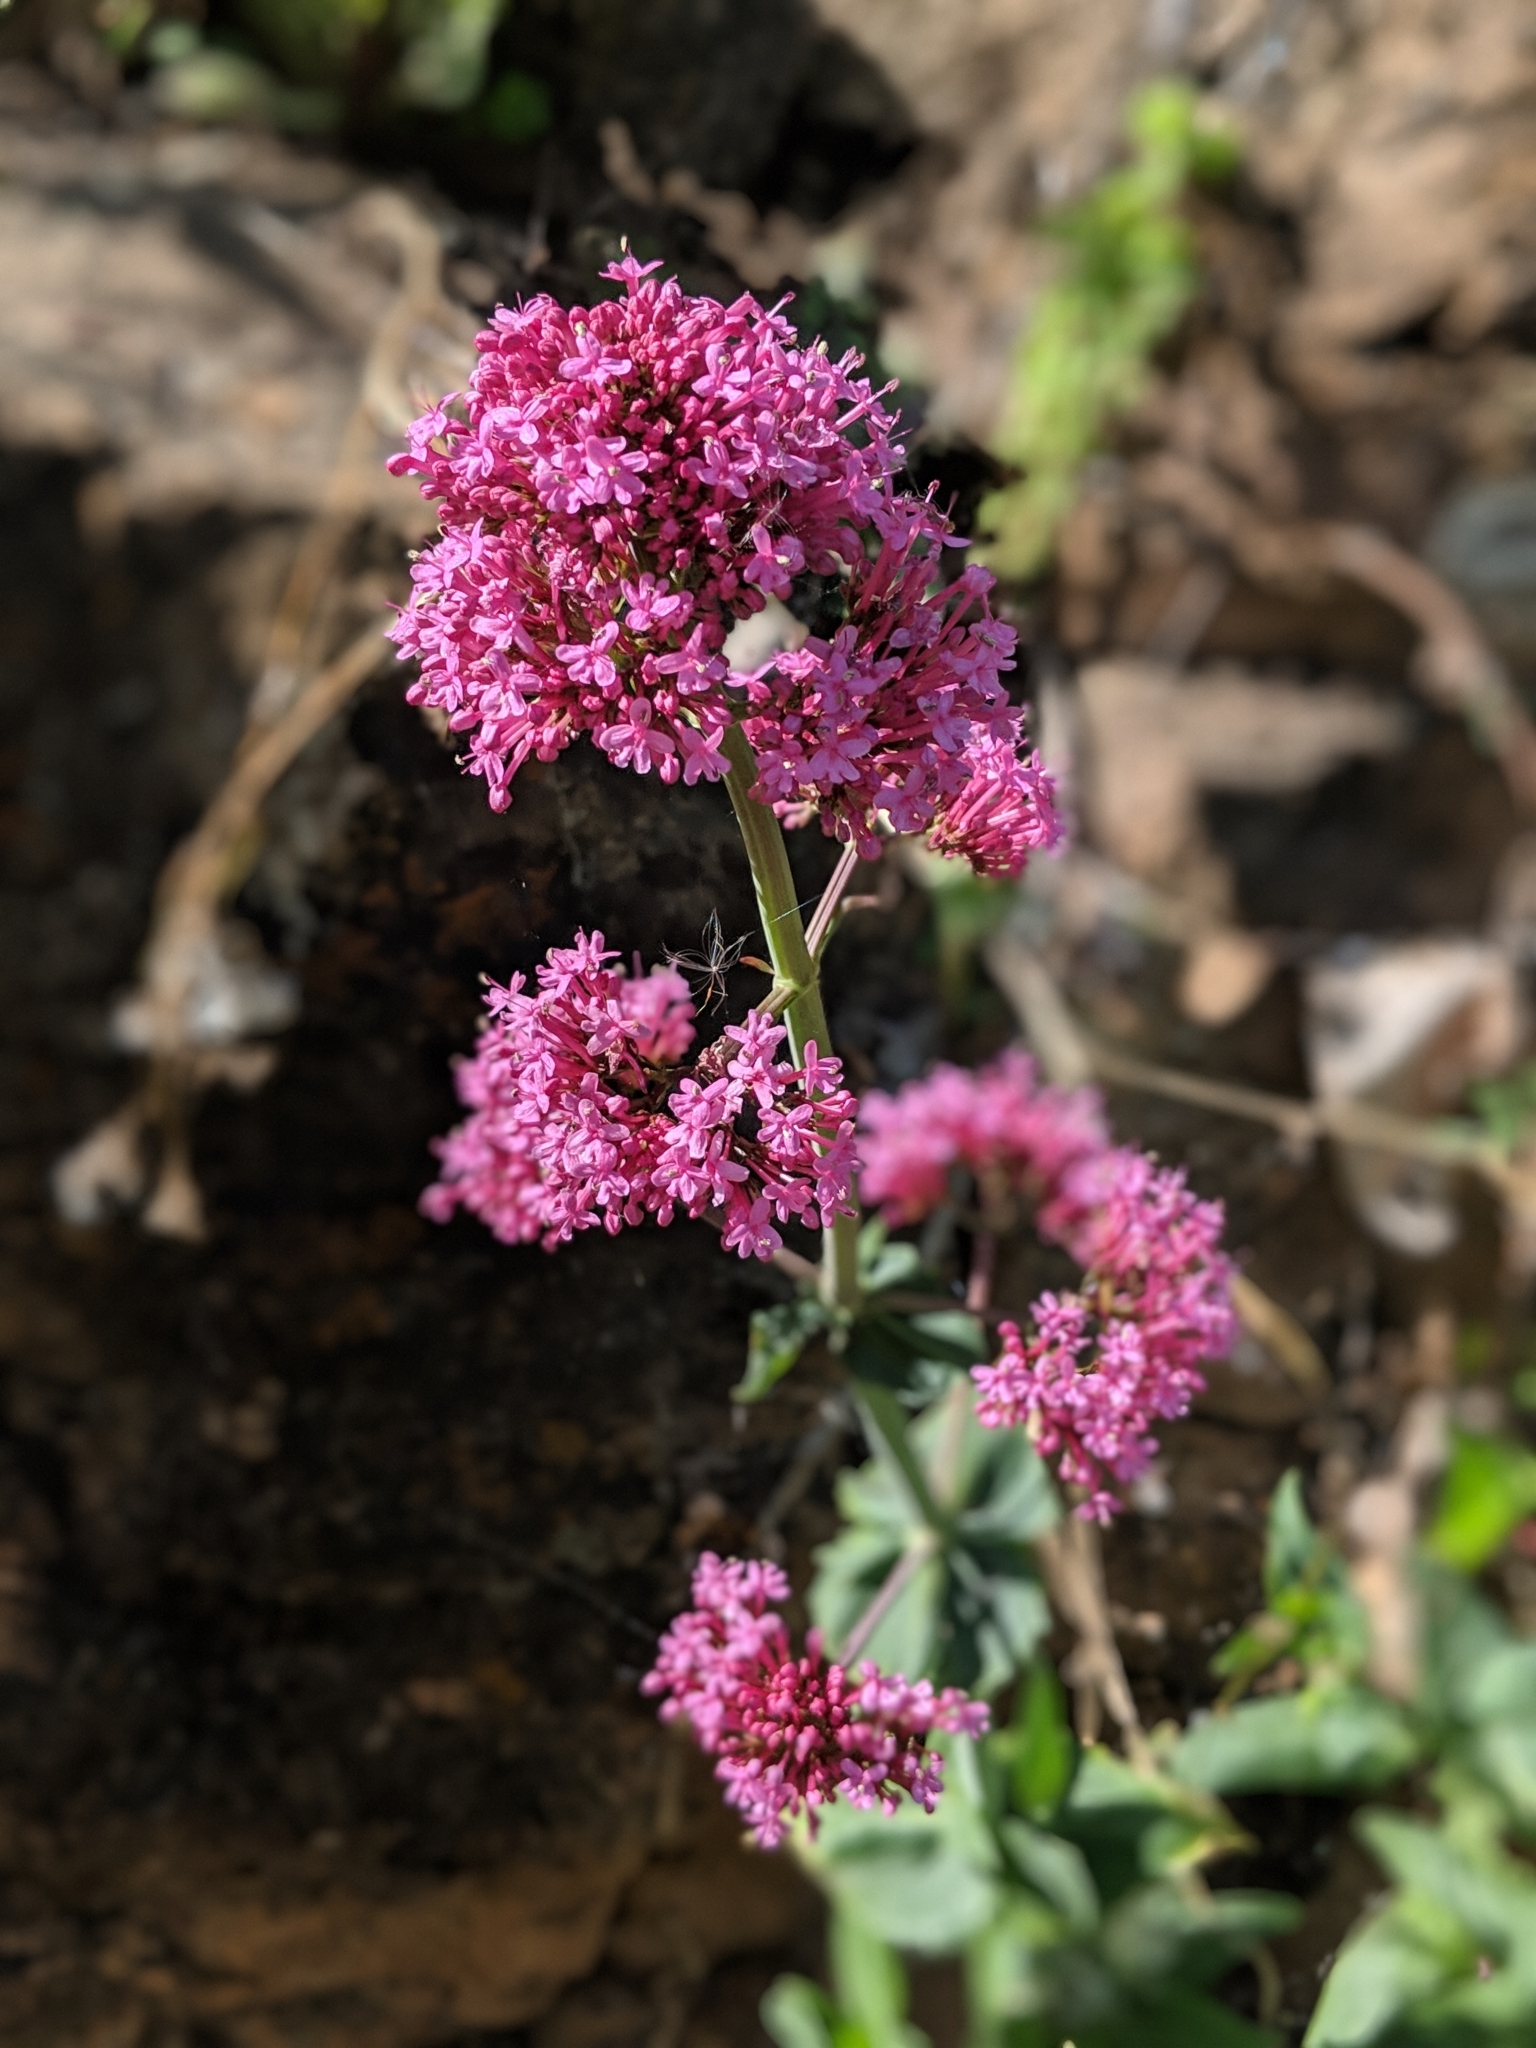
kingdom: Plantae
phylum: Tracheophyta
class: Magnoliopsida
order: Dipsacales
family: Caprifoliaceae
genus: Centranthus
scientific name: Centranthus ruber
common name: Red valerian
